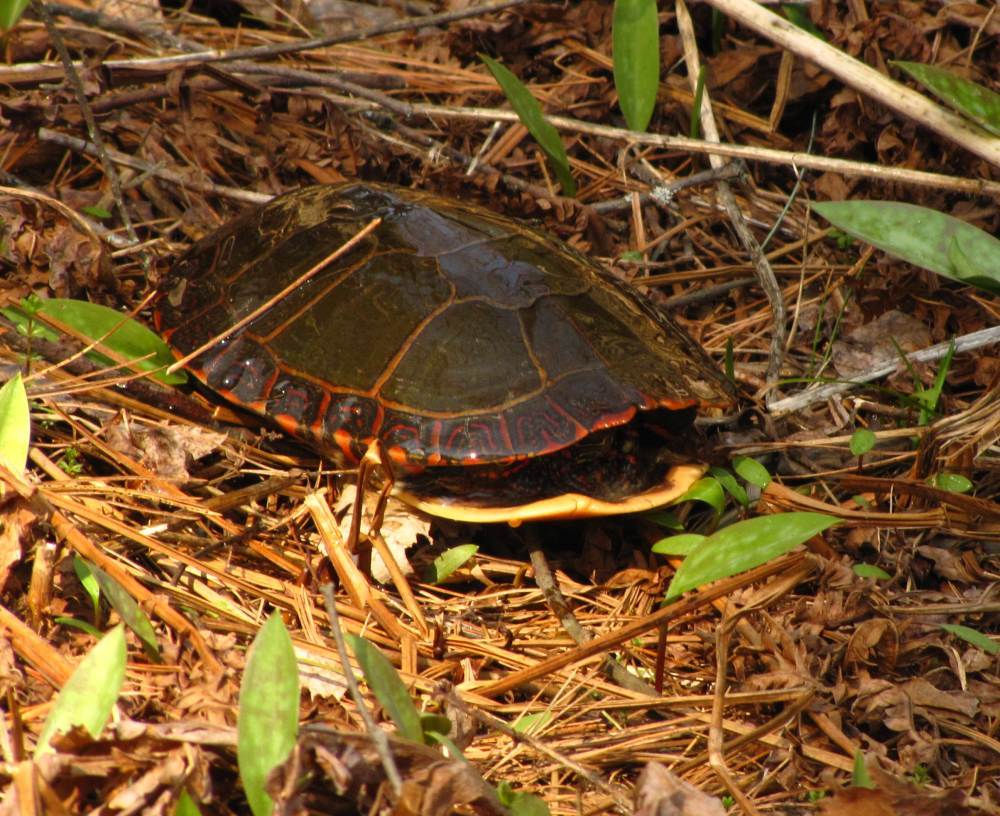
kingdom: Animalia
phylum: Chordata
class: Testudines
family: Emydidae
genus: Chrysemys
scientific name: Chrysemys picta
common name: Painted turtle
